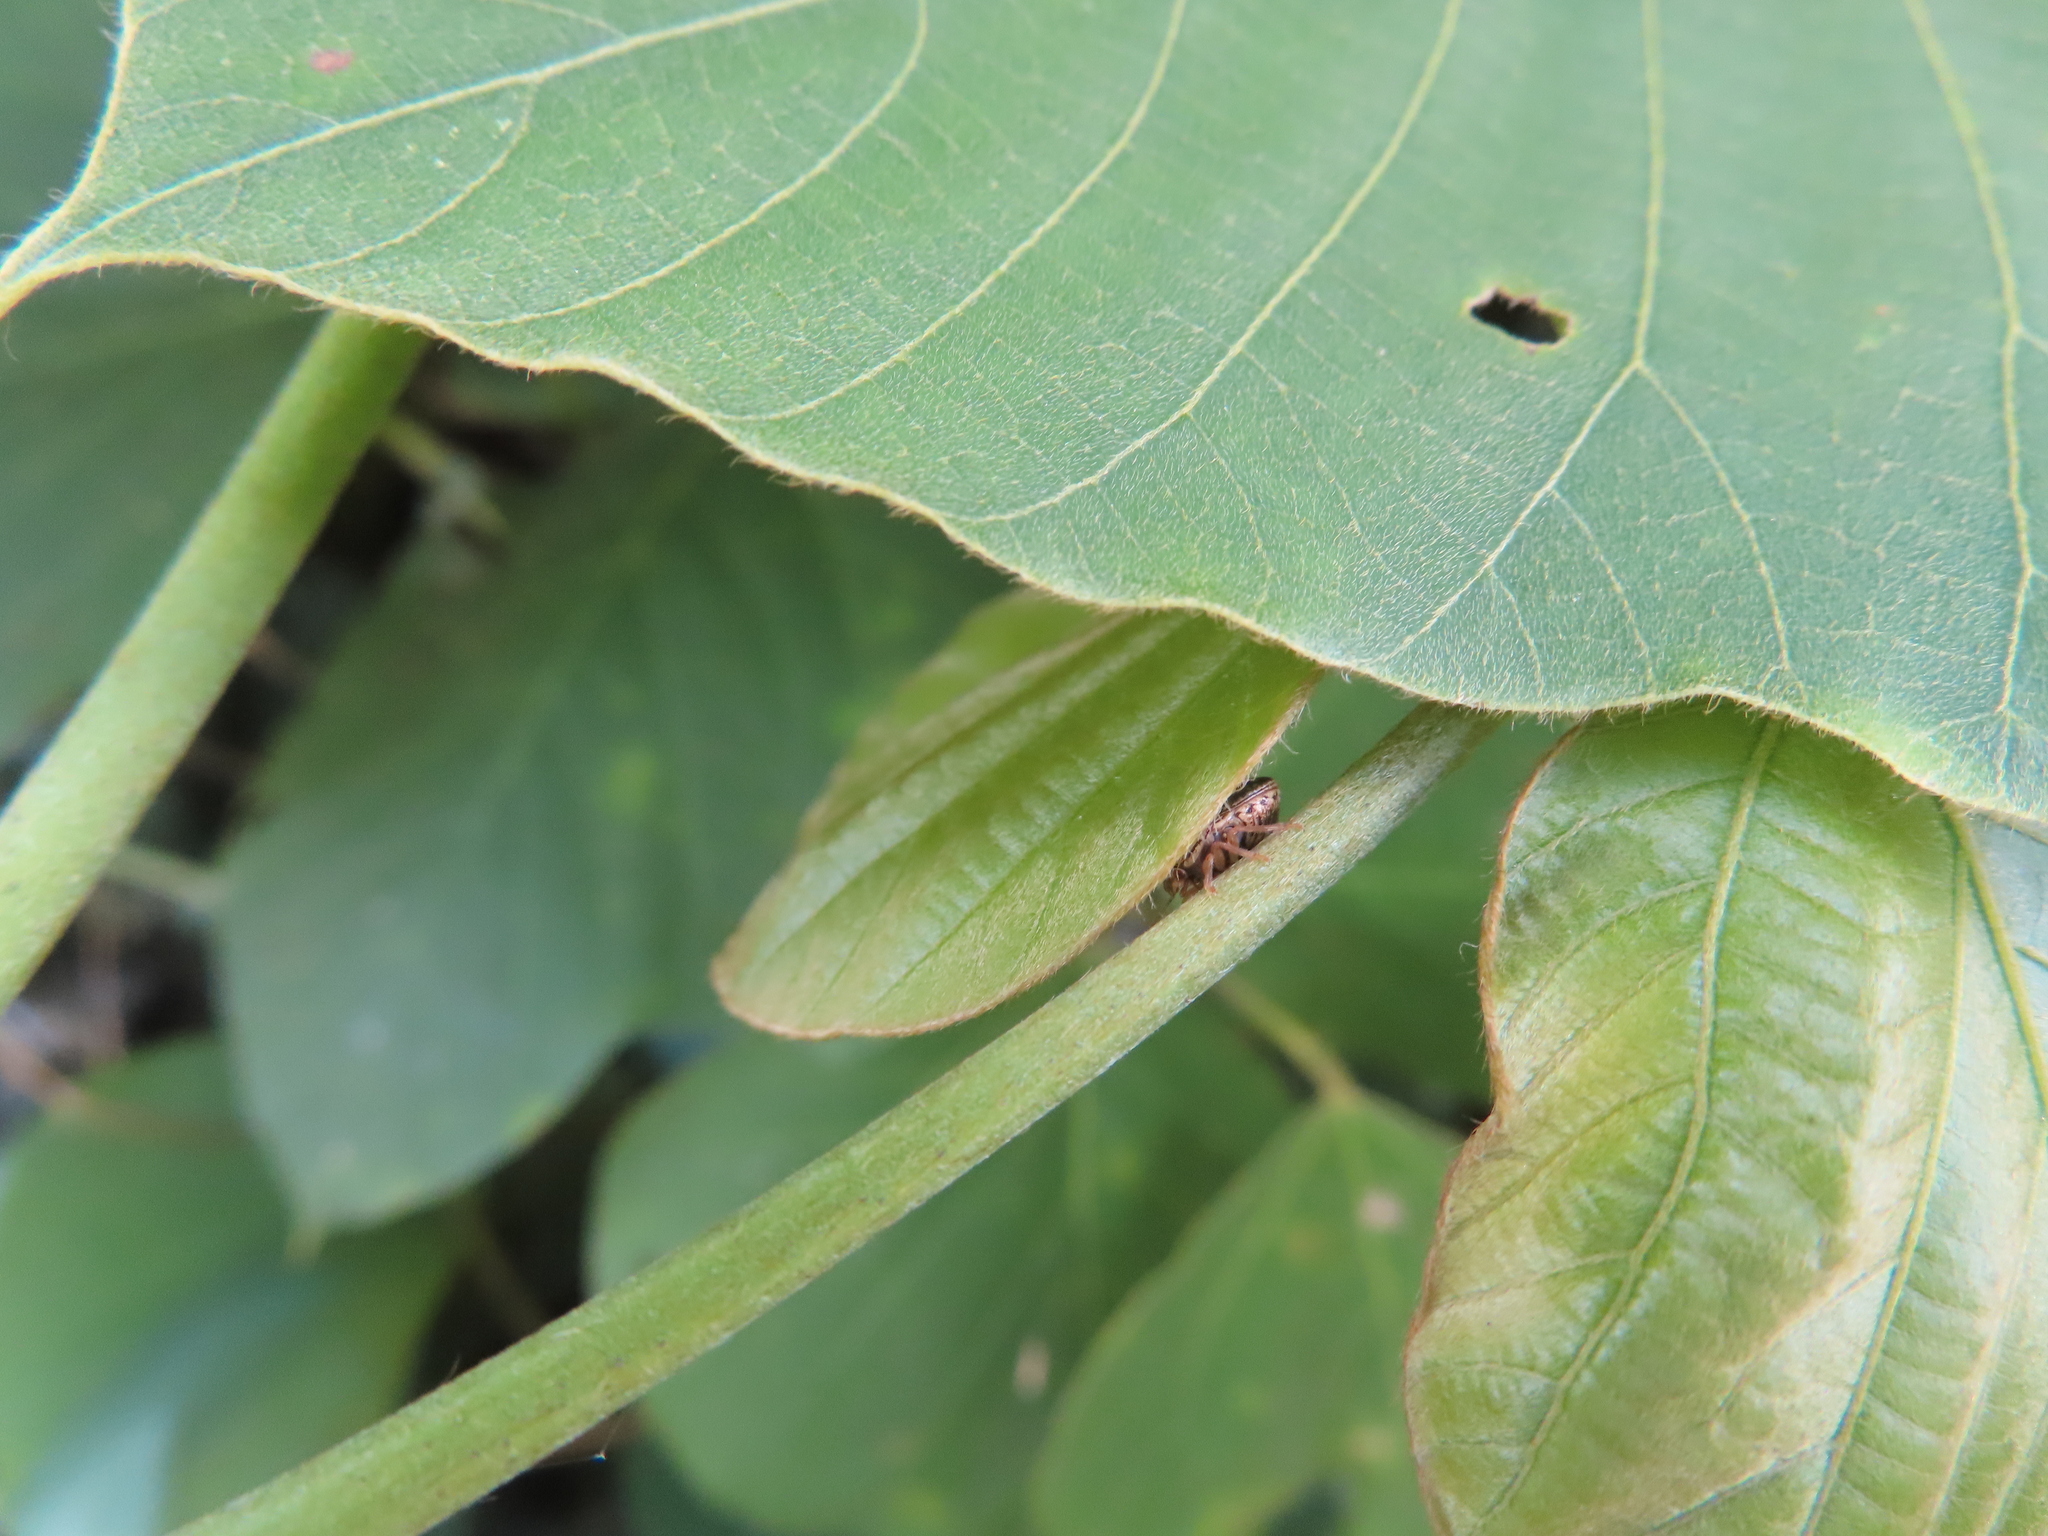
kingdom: Animalia
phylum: Arthropoda
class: Insecta
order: Hemiptera
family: Plataspidae
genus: Megacopta
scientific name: Megacopta cribraria
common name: Bean plataspid
